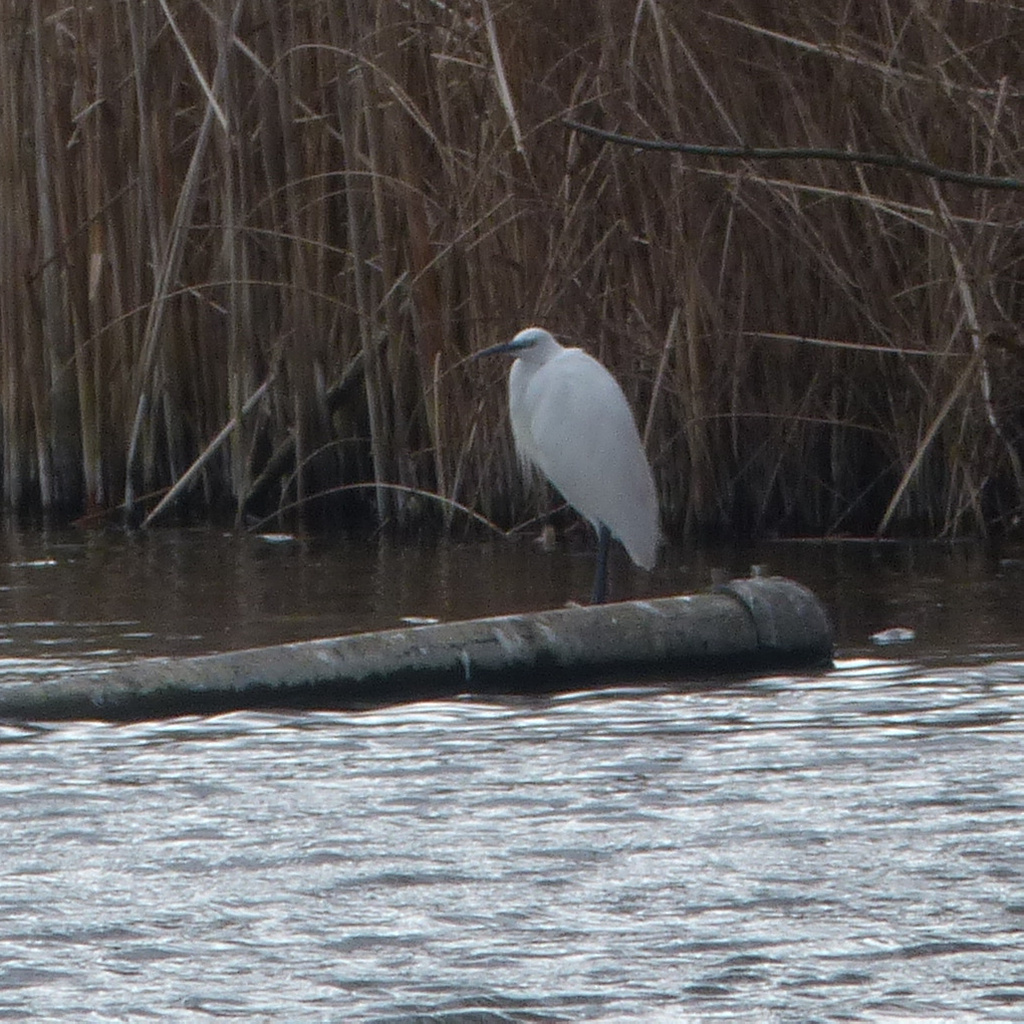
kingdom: Animalia
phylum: Chordata
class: Aves
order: Pelecaniformes
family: Ardeidae
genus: Egretta
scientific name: Egretta garzetta
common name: Little egret
